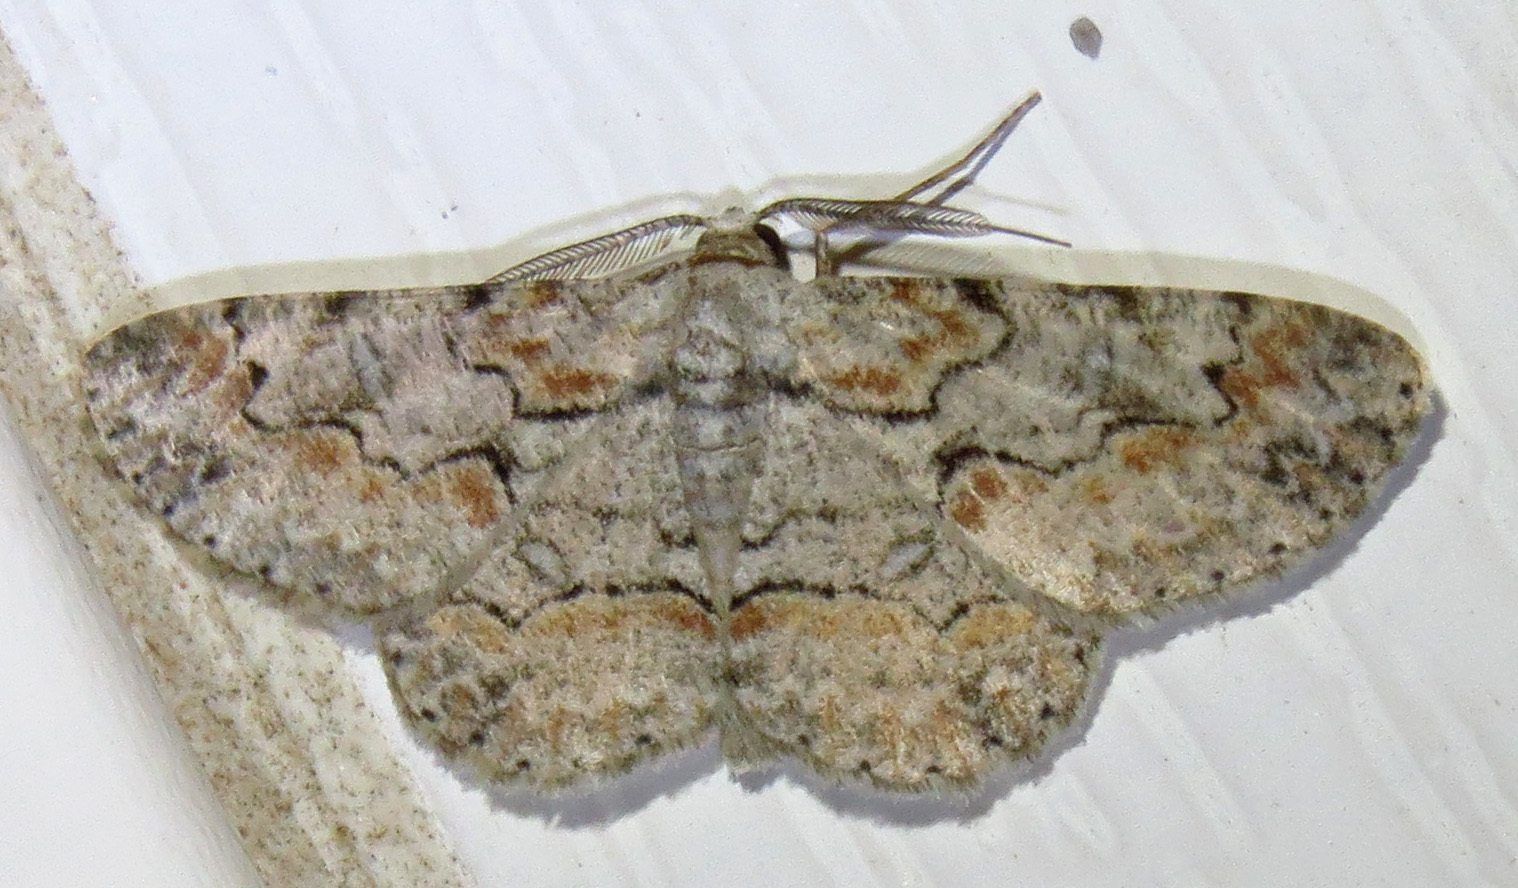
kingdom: Animalia
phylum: Arthropoda
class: Insecta
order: Lepidoptera
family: Geometridae
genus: Iridopsis
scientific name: Iridopsis defectaria
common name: Brown-shaded gray
